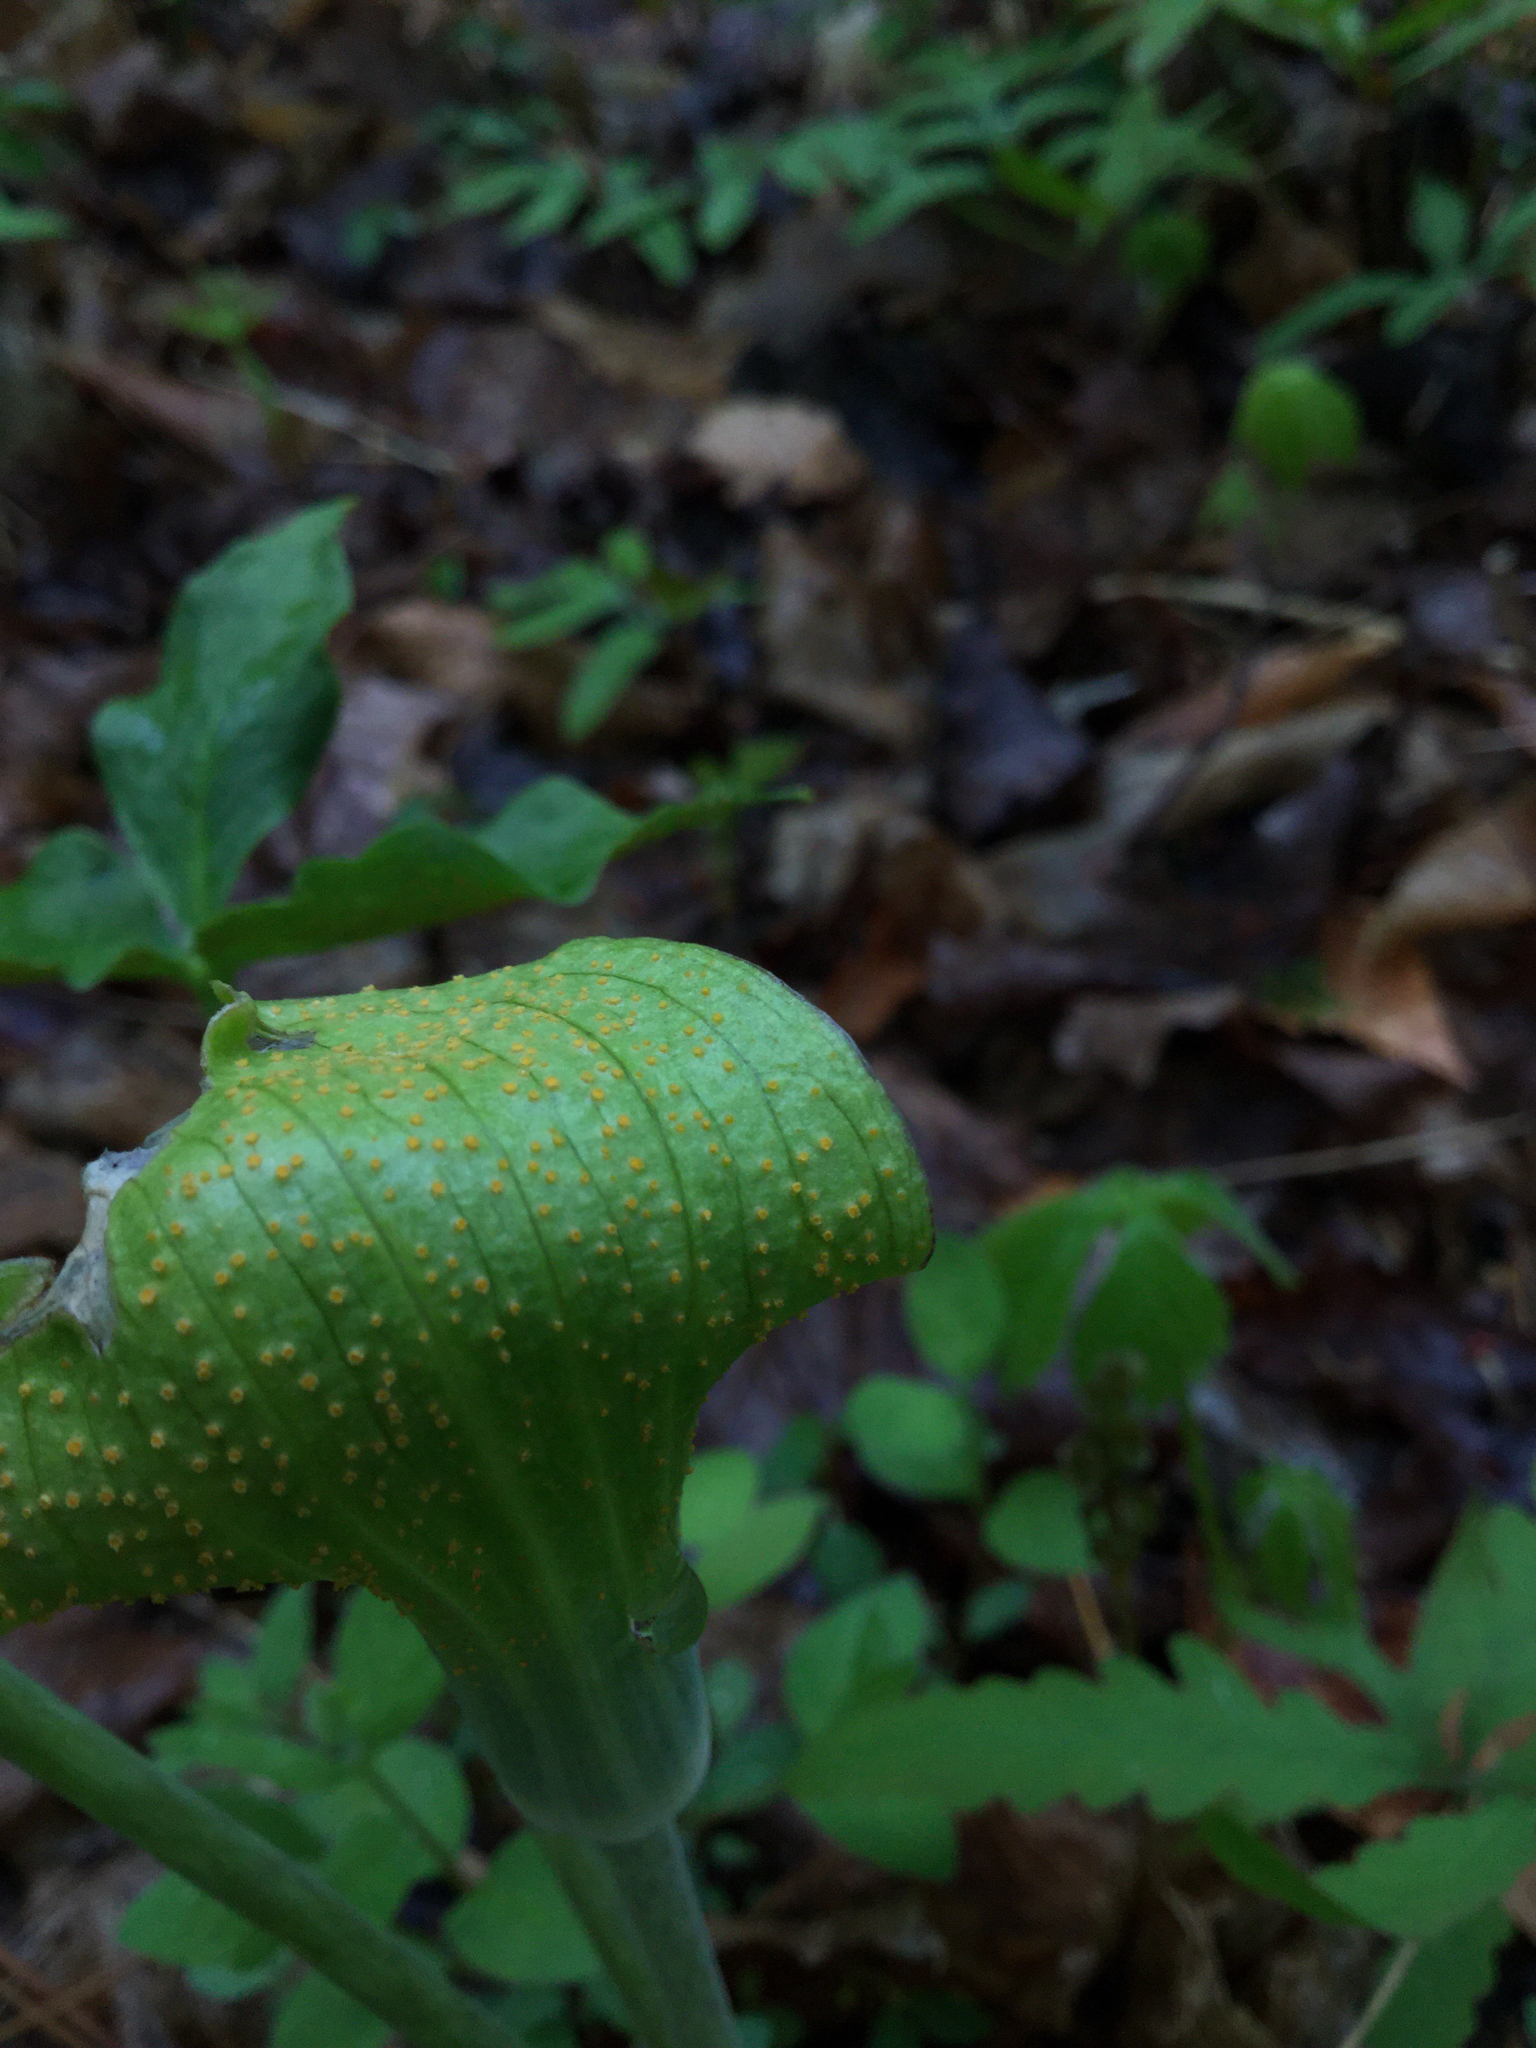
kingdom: Fungi
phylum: Basidiomycota
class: Pucciniomycetes
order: Pucciniales
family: Pucciniaceae
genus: Uromyces
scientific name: Uromyces ari-triphylli
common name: Jack-in-the-pulpit rust
